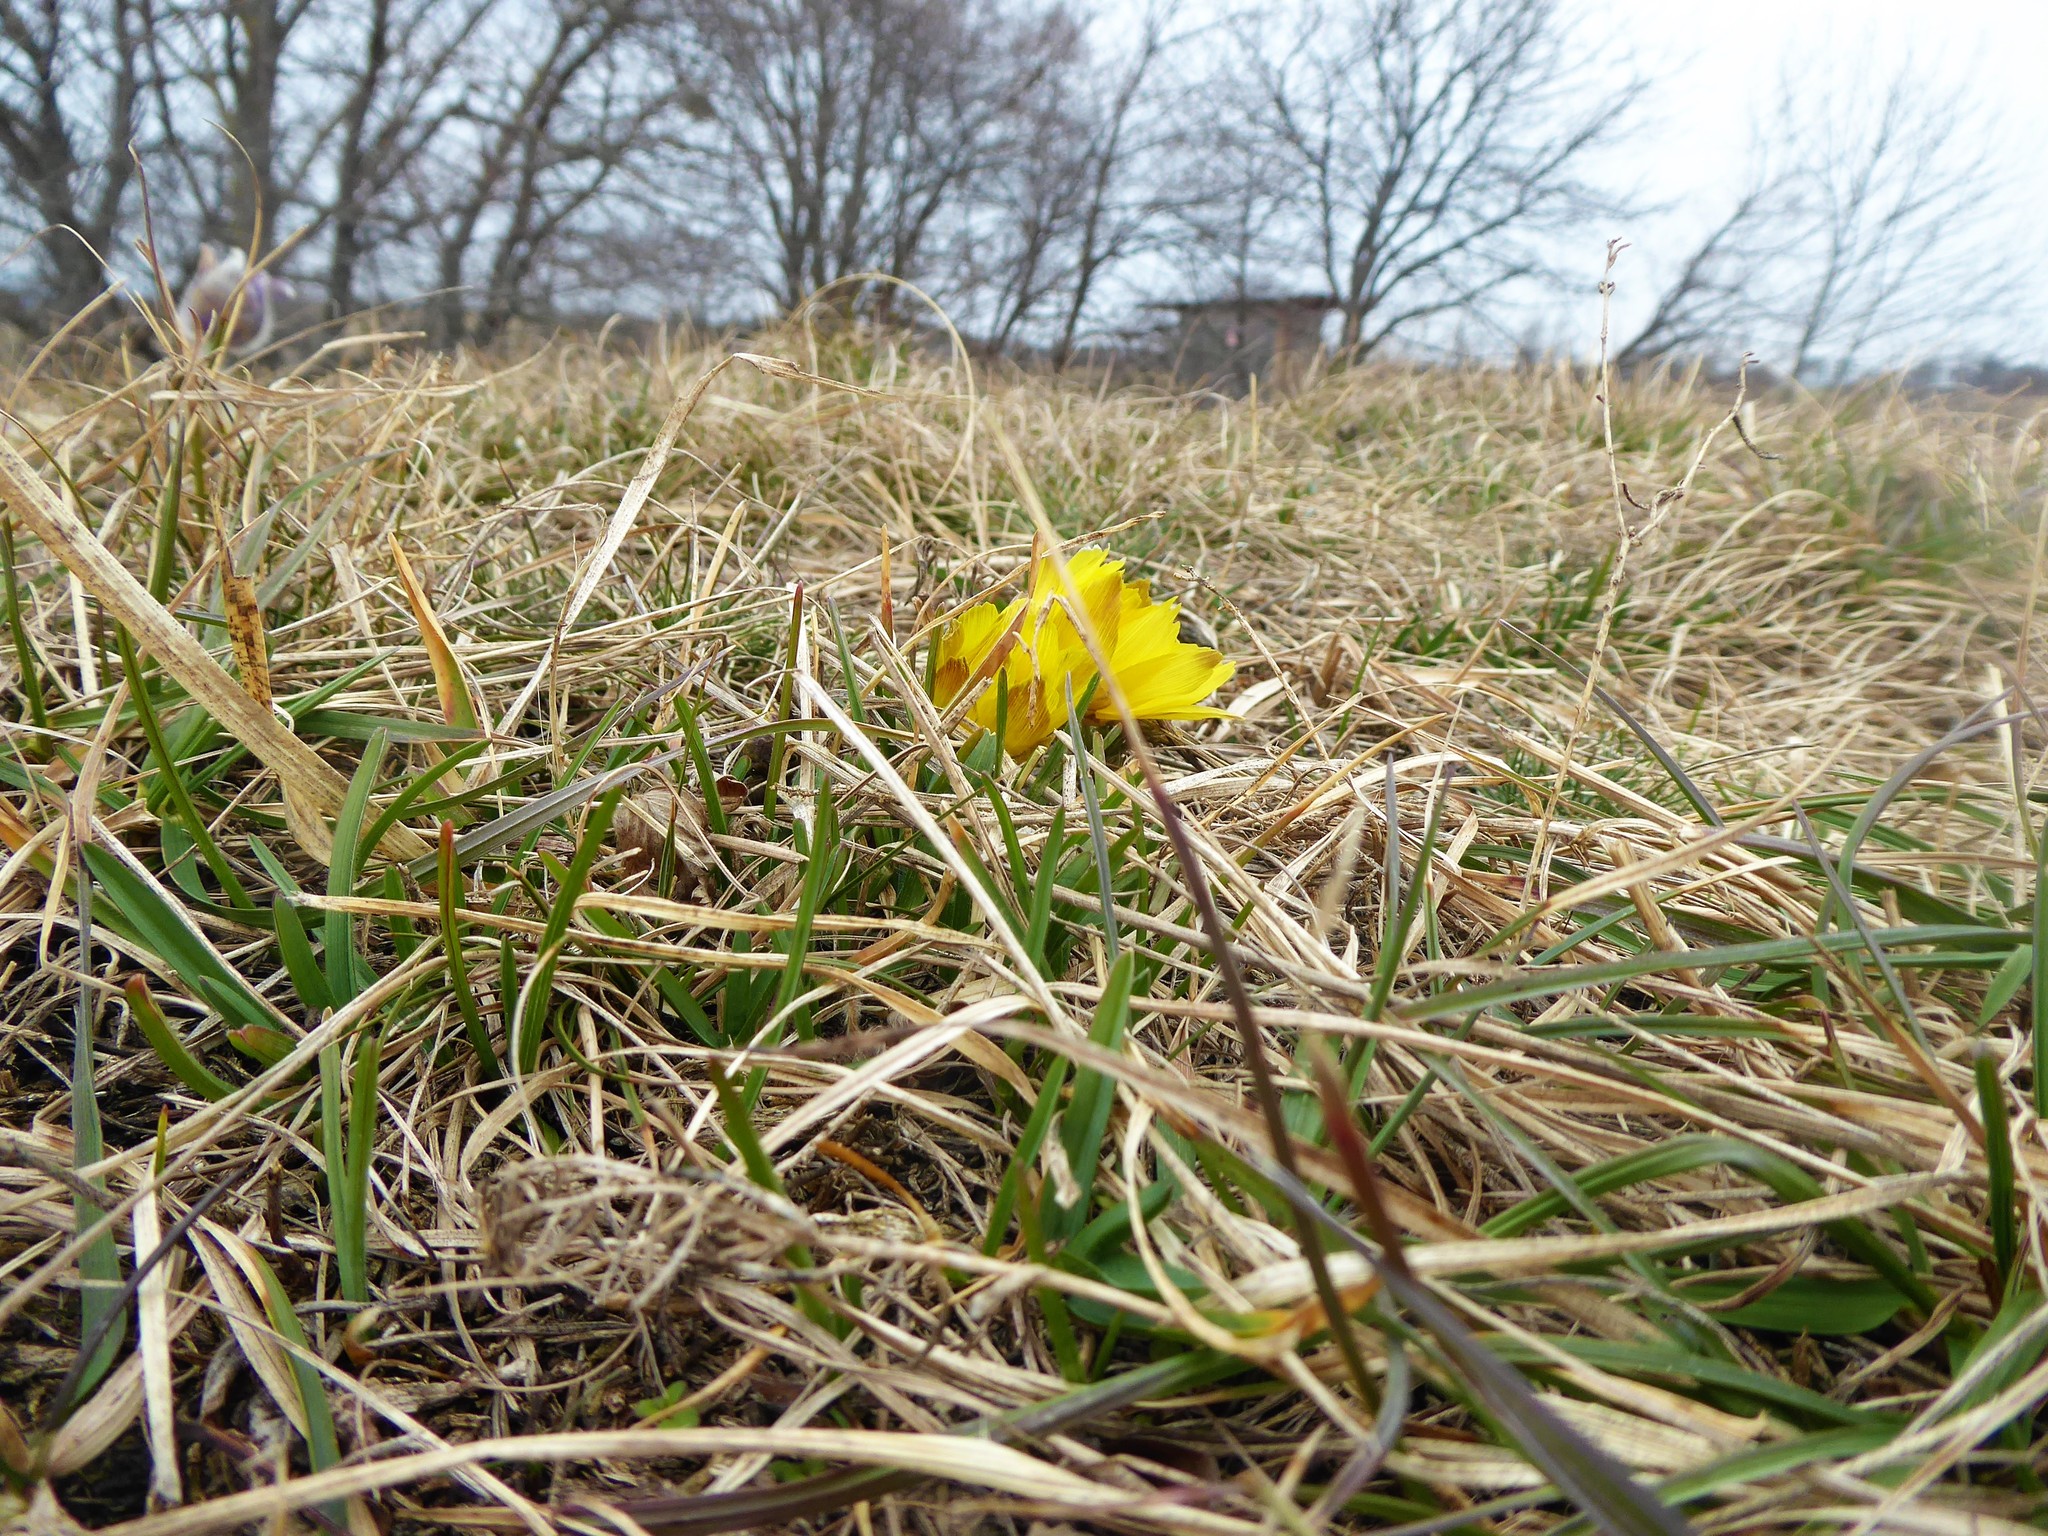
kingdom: Plantae
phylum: Tracheophyta
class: Magnoliopsida
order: Ranunculales
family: Ranunculaceae
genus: Adonis
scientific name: Adonis vernalis
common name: Yellow pheasants-eye
